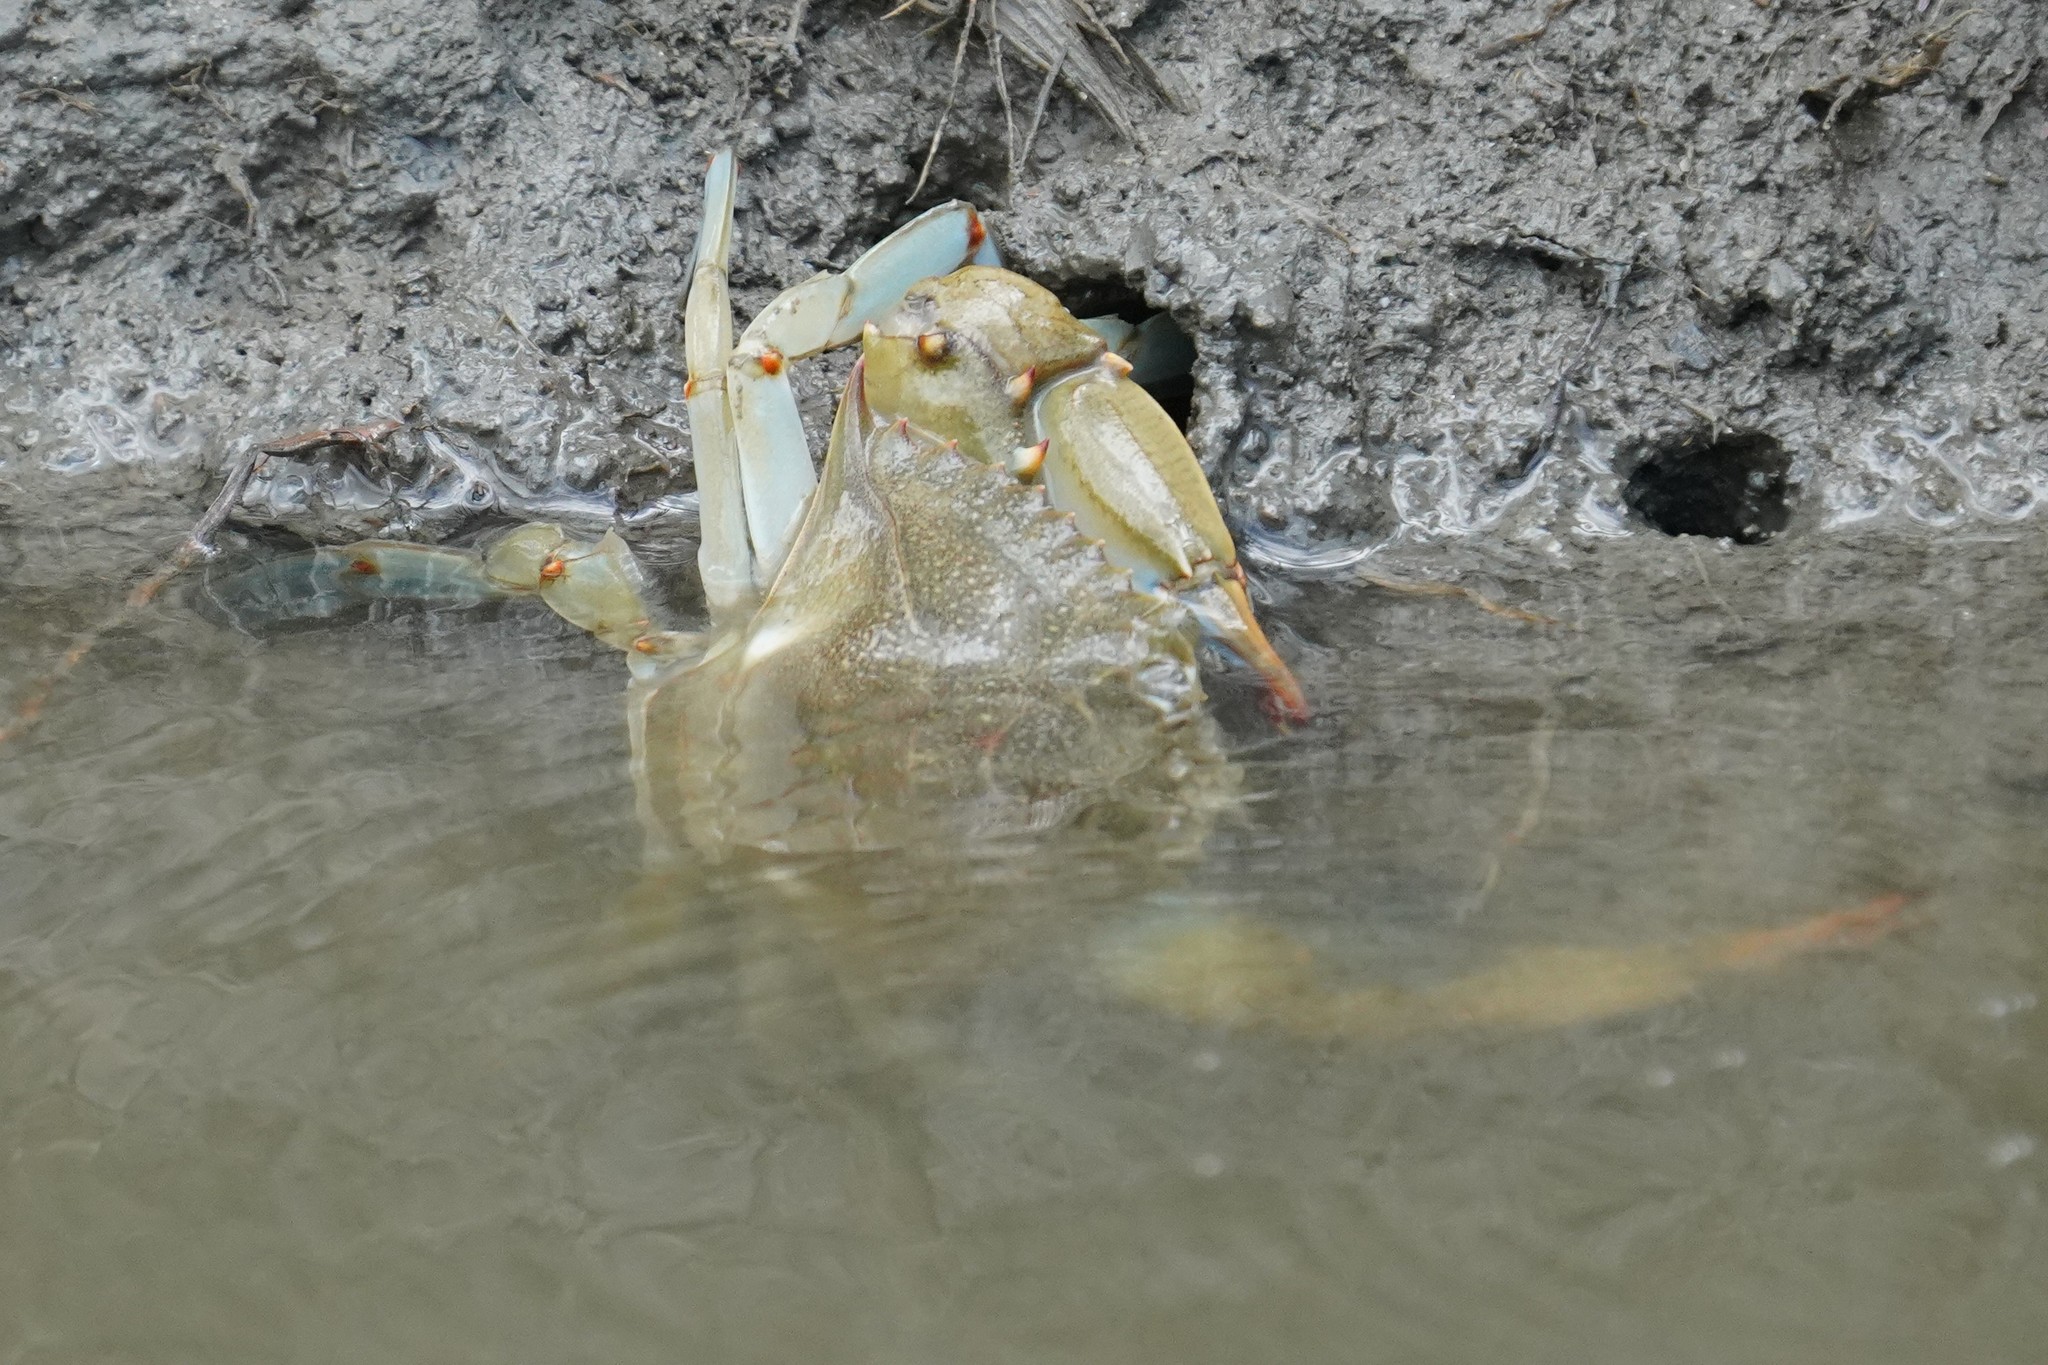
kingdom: Animalia
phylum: Arthropoda
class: Malacostraca
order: Decapoda
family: Portunidae
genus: Callinectes
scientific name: Callinectes sapidus
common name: Blue crab
